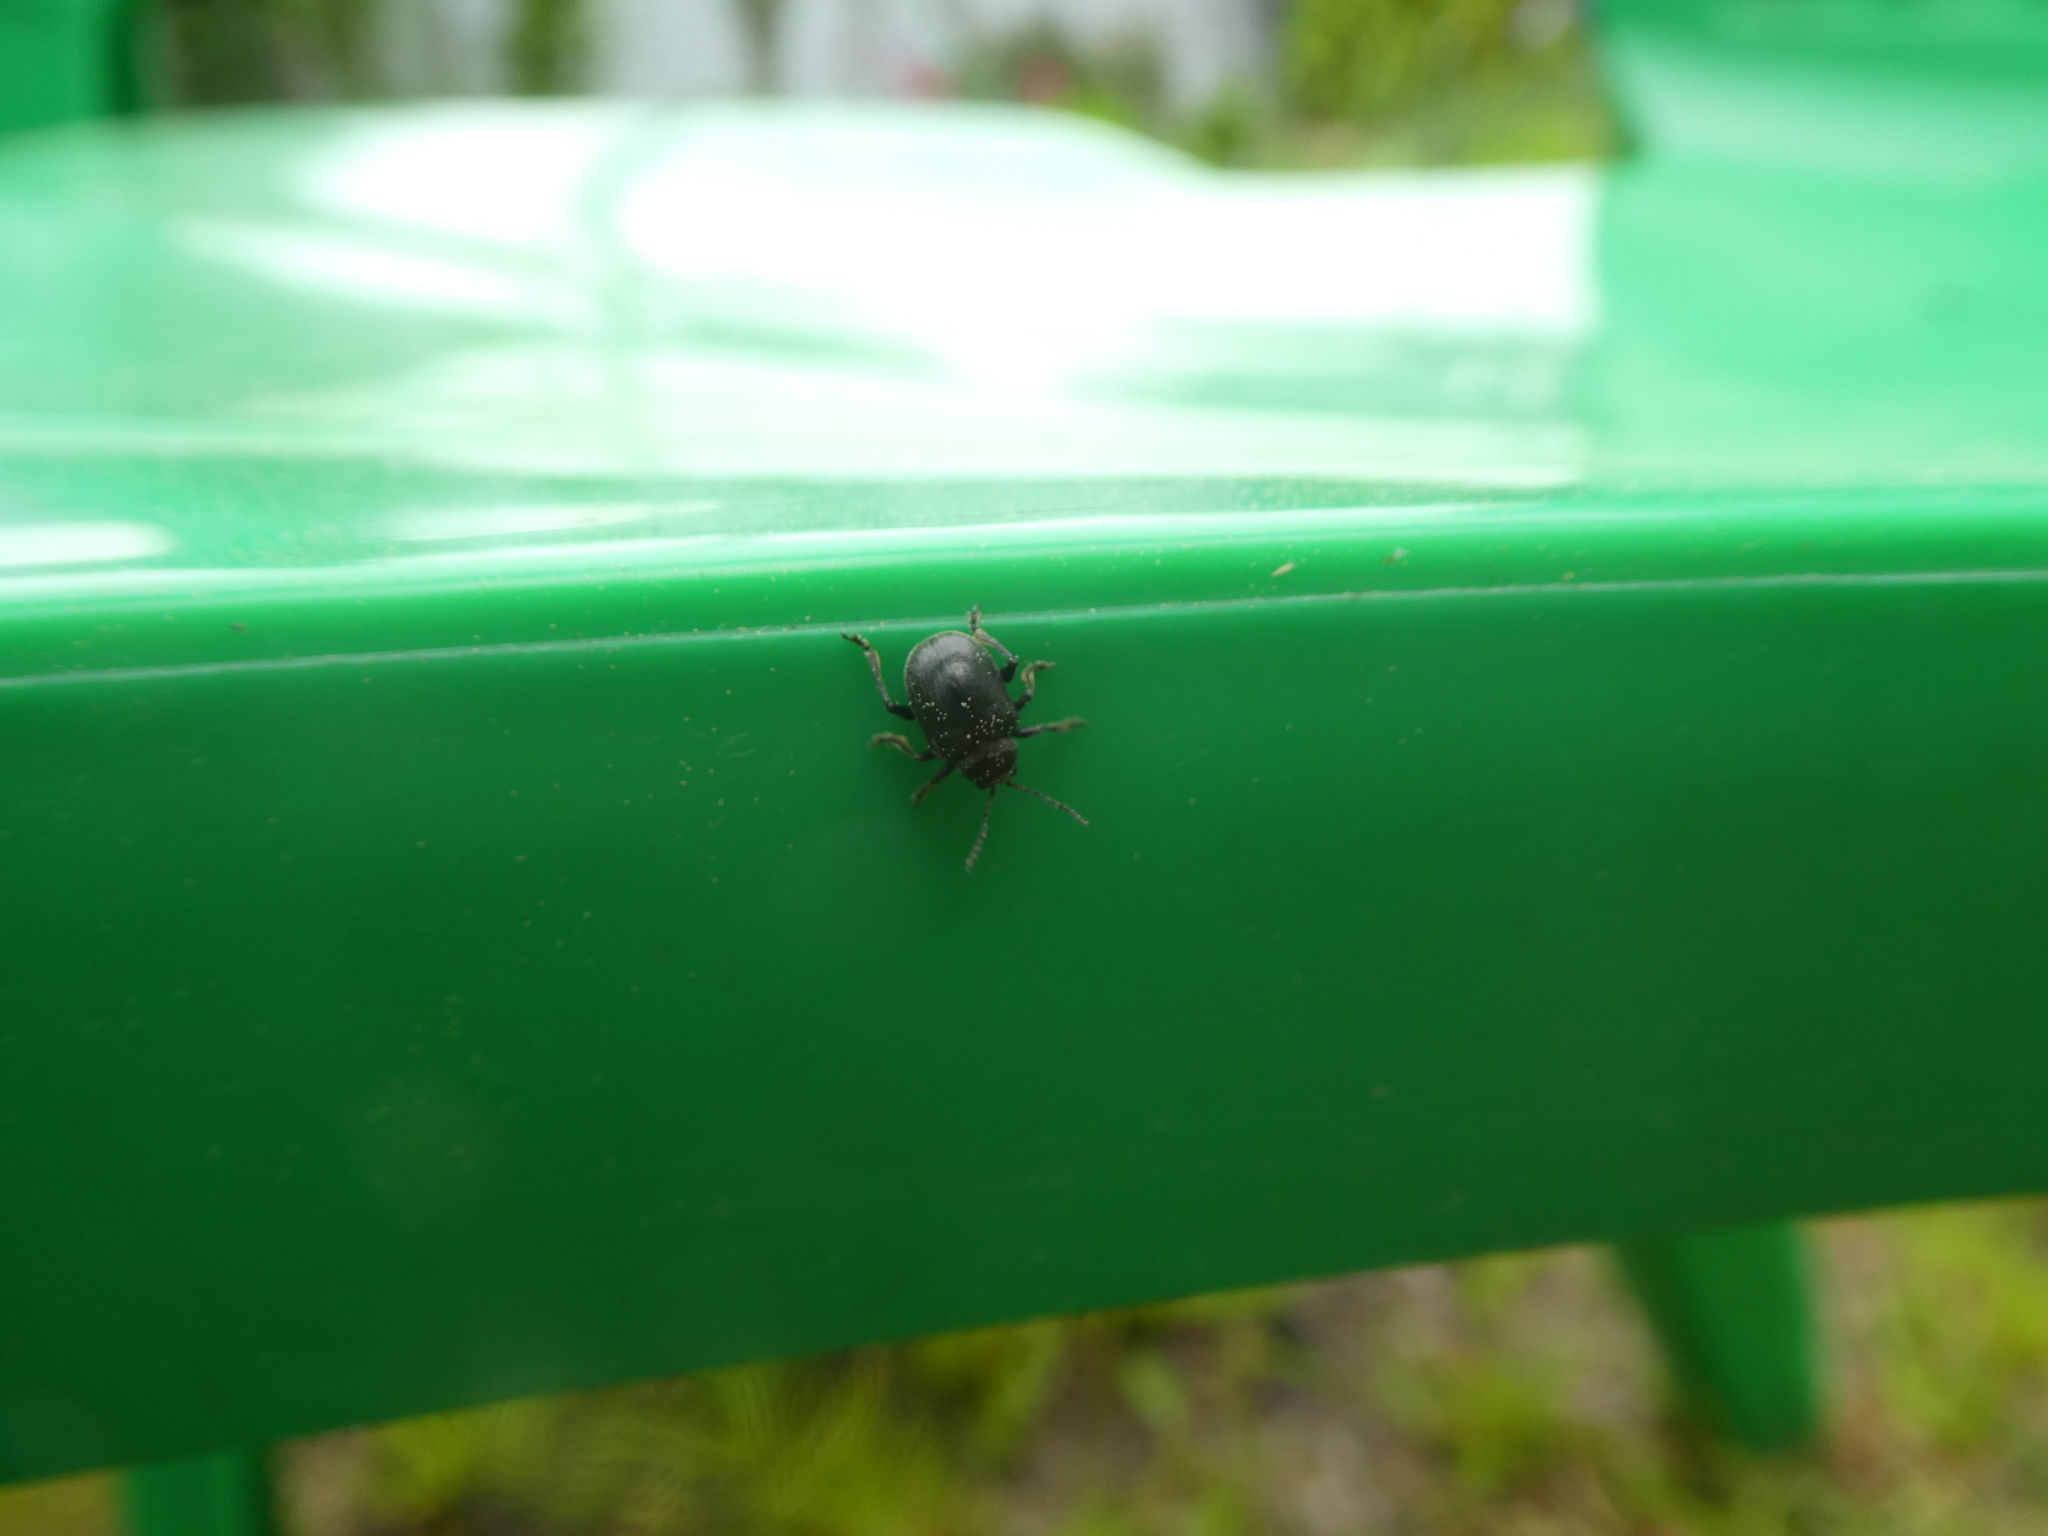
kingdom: Animalia
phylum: Arthropoda
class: Insecta
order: Coleoptera
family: Chrysomelidae
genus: Bromius
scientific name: Bromius obscurus
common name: Western grape rootworm
